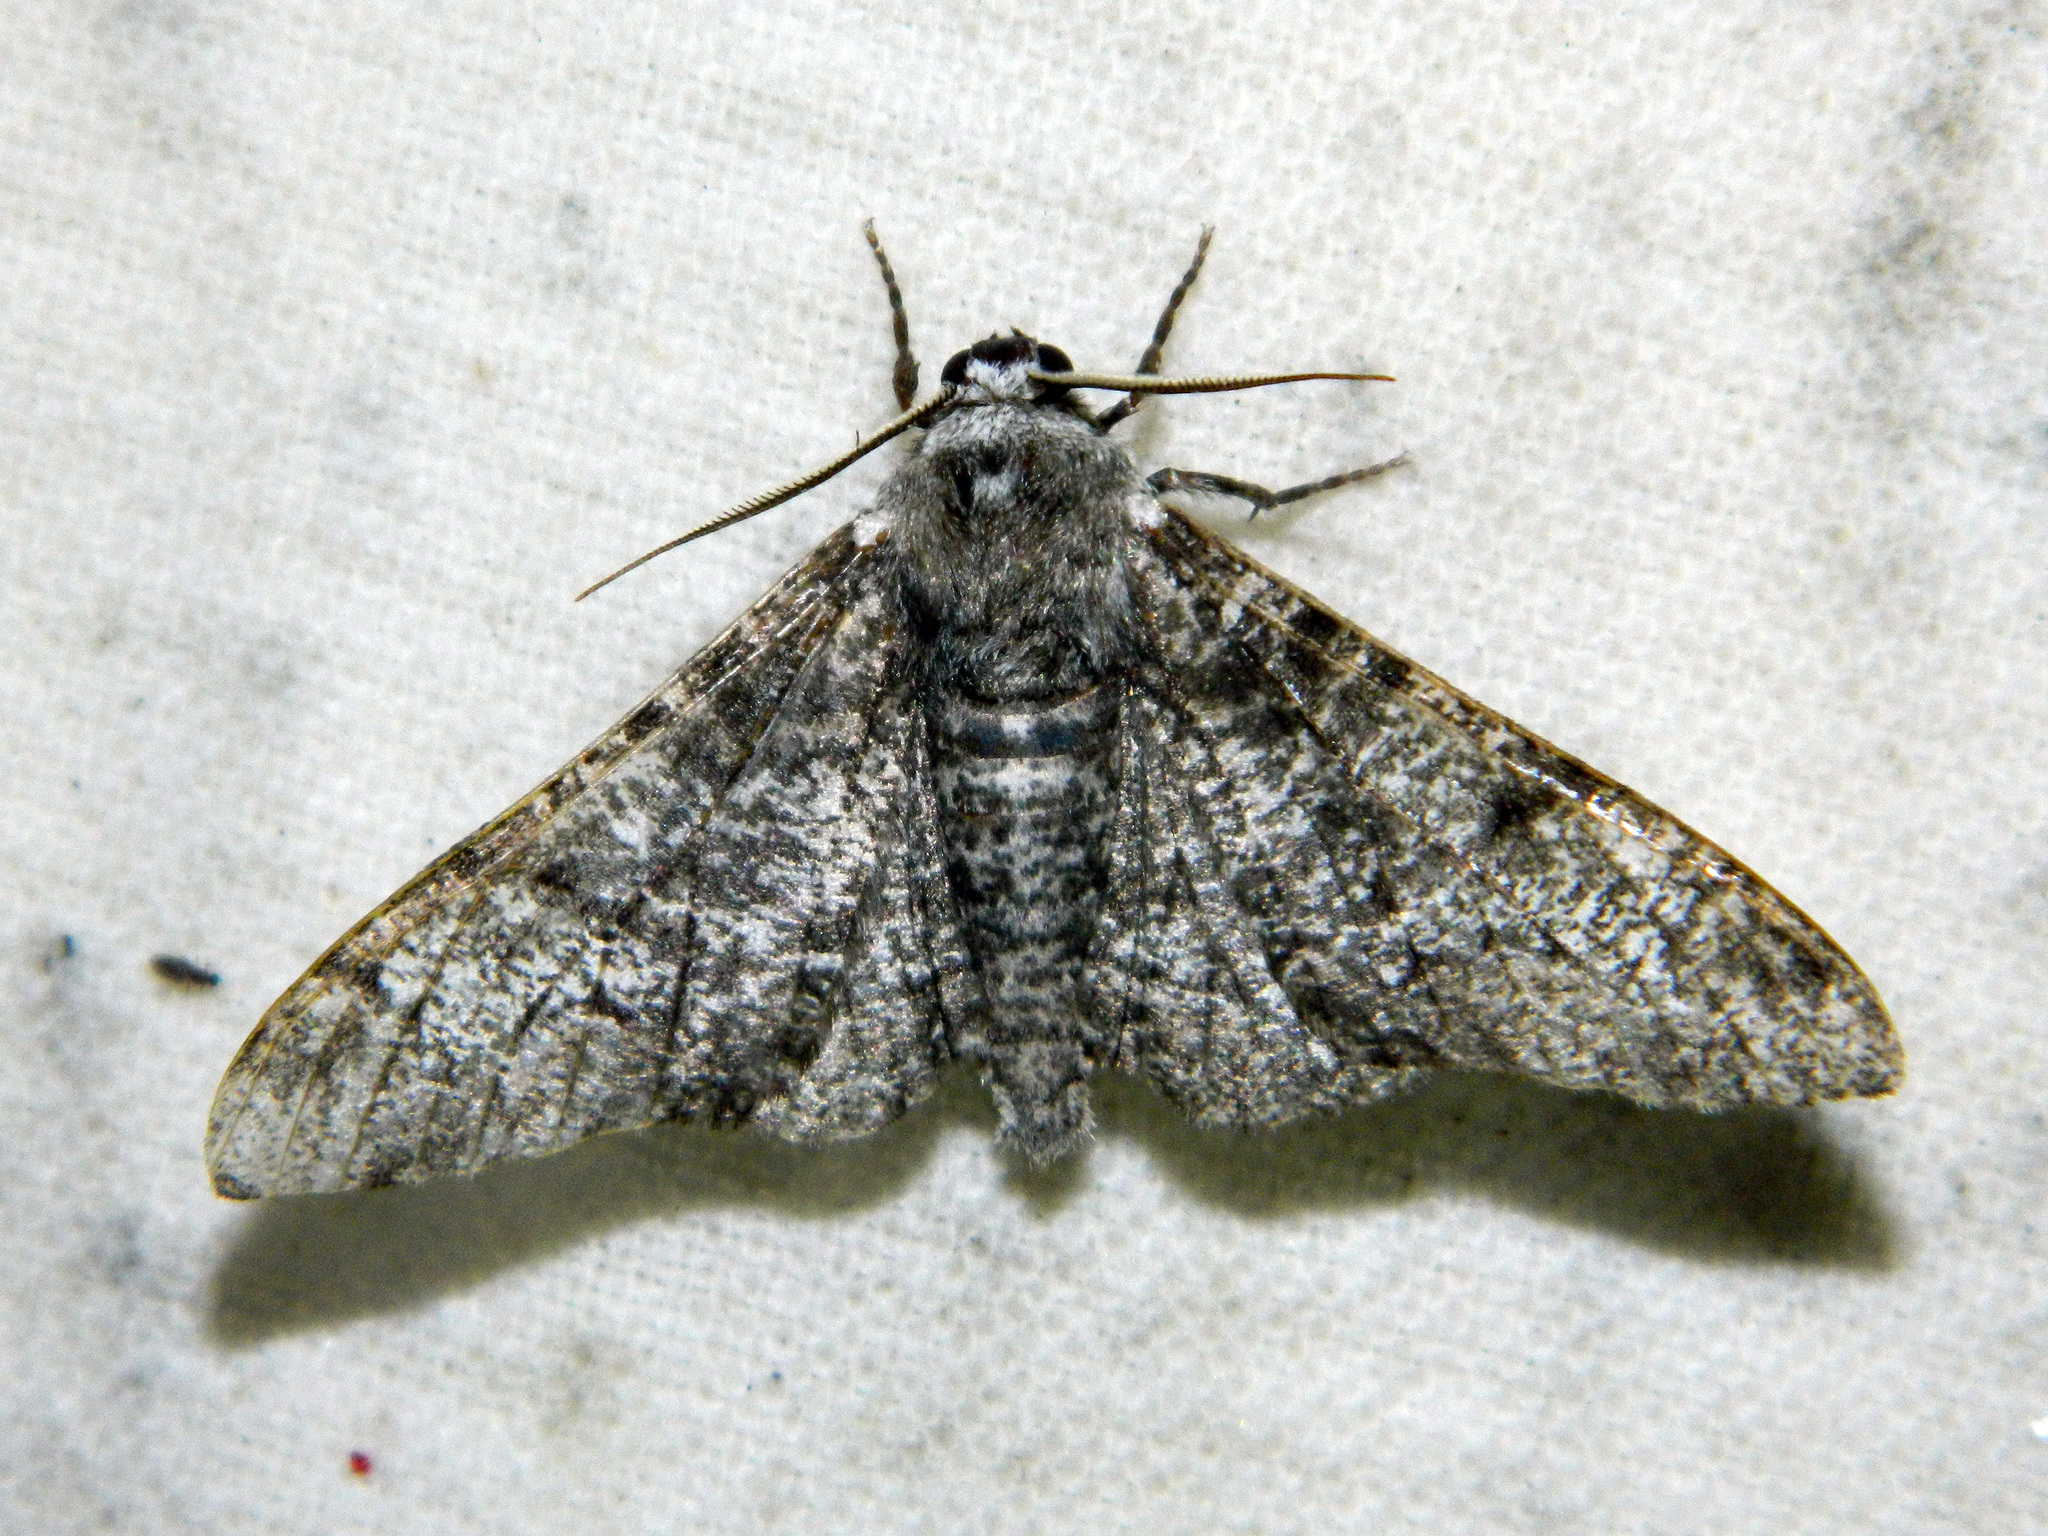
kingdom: Animalia
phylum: Arthropoda
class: Insecta
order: Lepidoptera
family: Geometridae
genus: Biston
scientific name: Biston betularia
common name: Peppered moth
